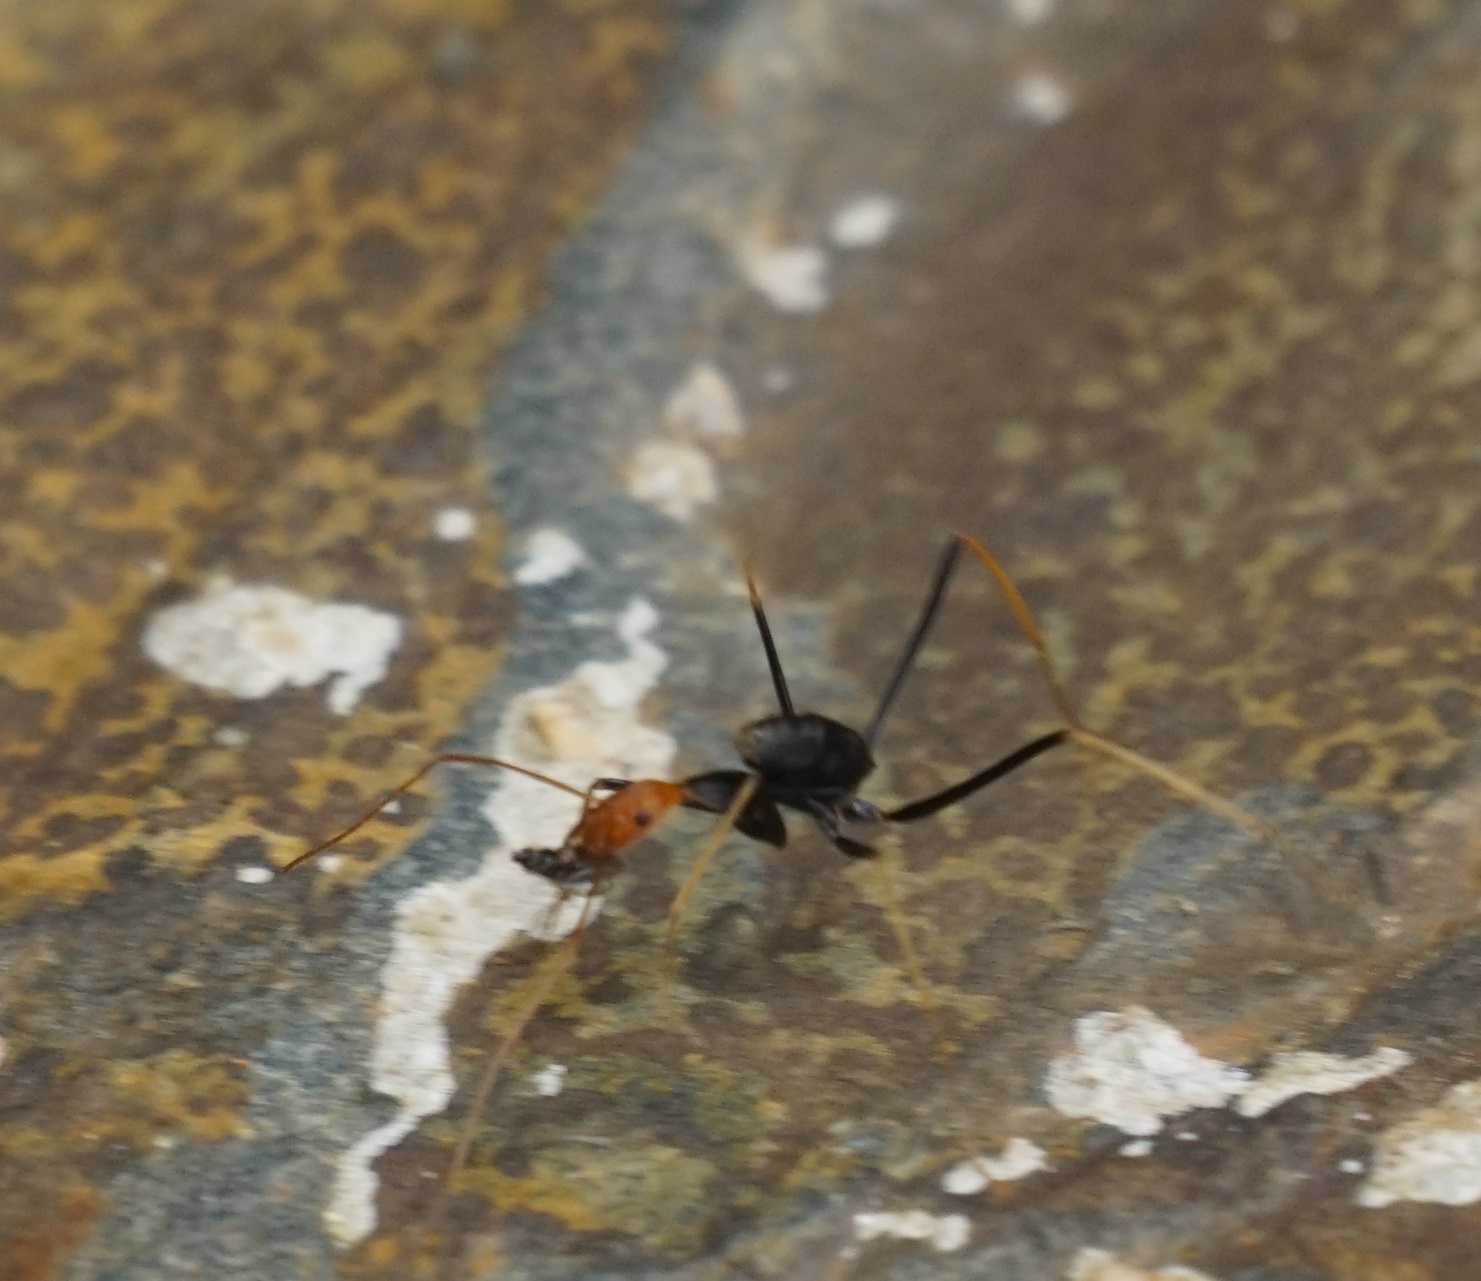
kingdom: Animalia
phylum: Arthropoda
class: Insecta
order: Hymenoptera
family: Formicidae
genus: Leptomyrmex
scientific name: Leptomyrmex ruficeps
